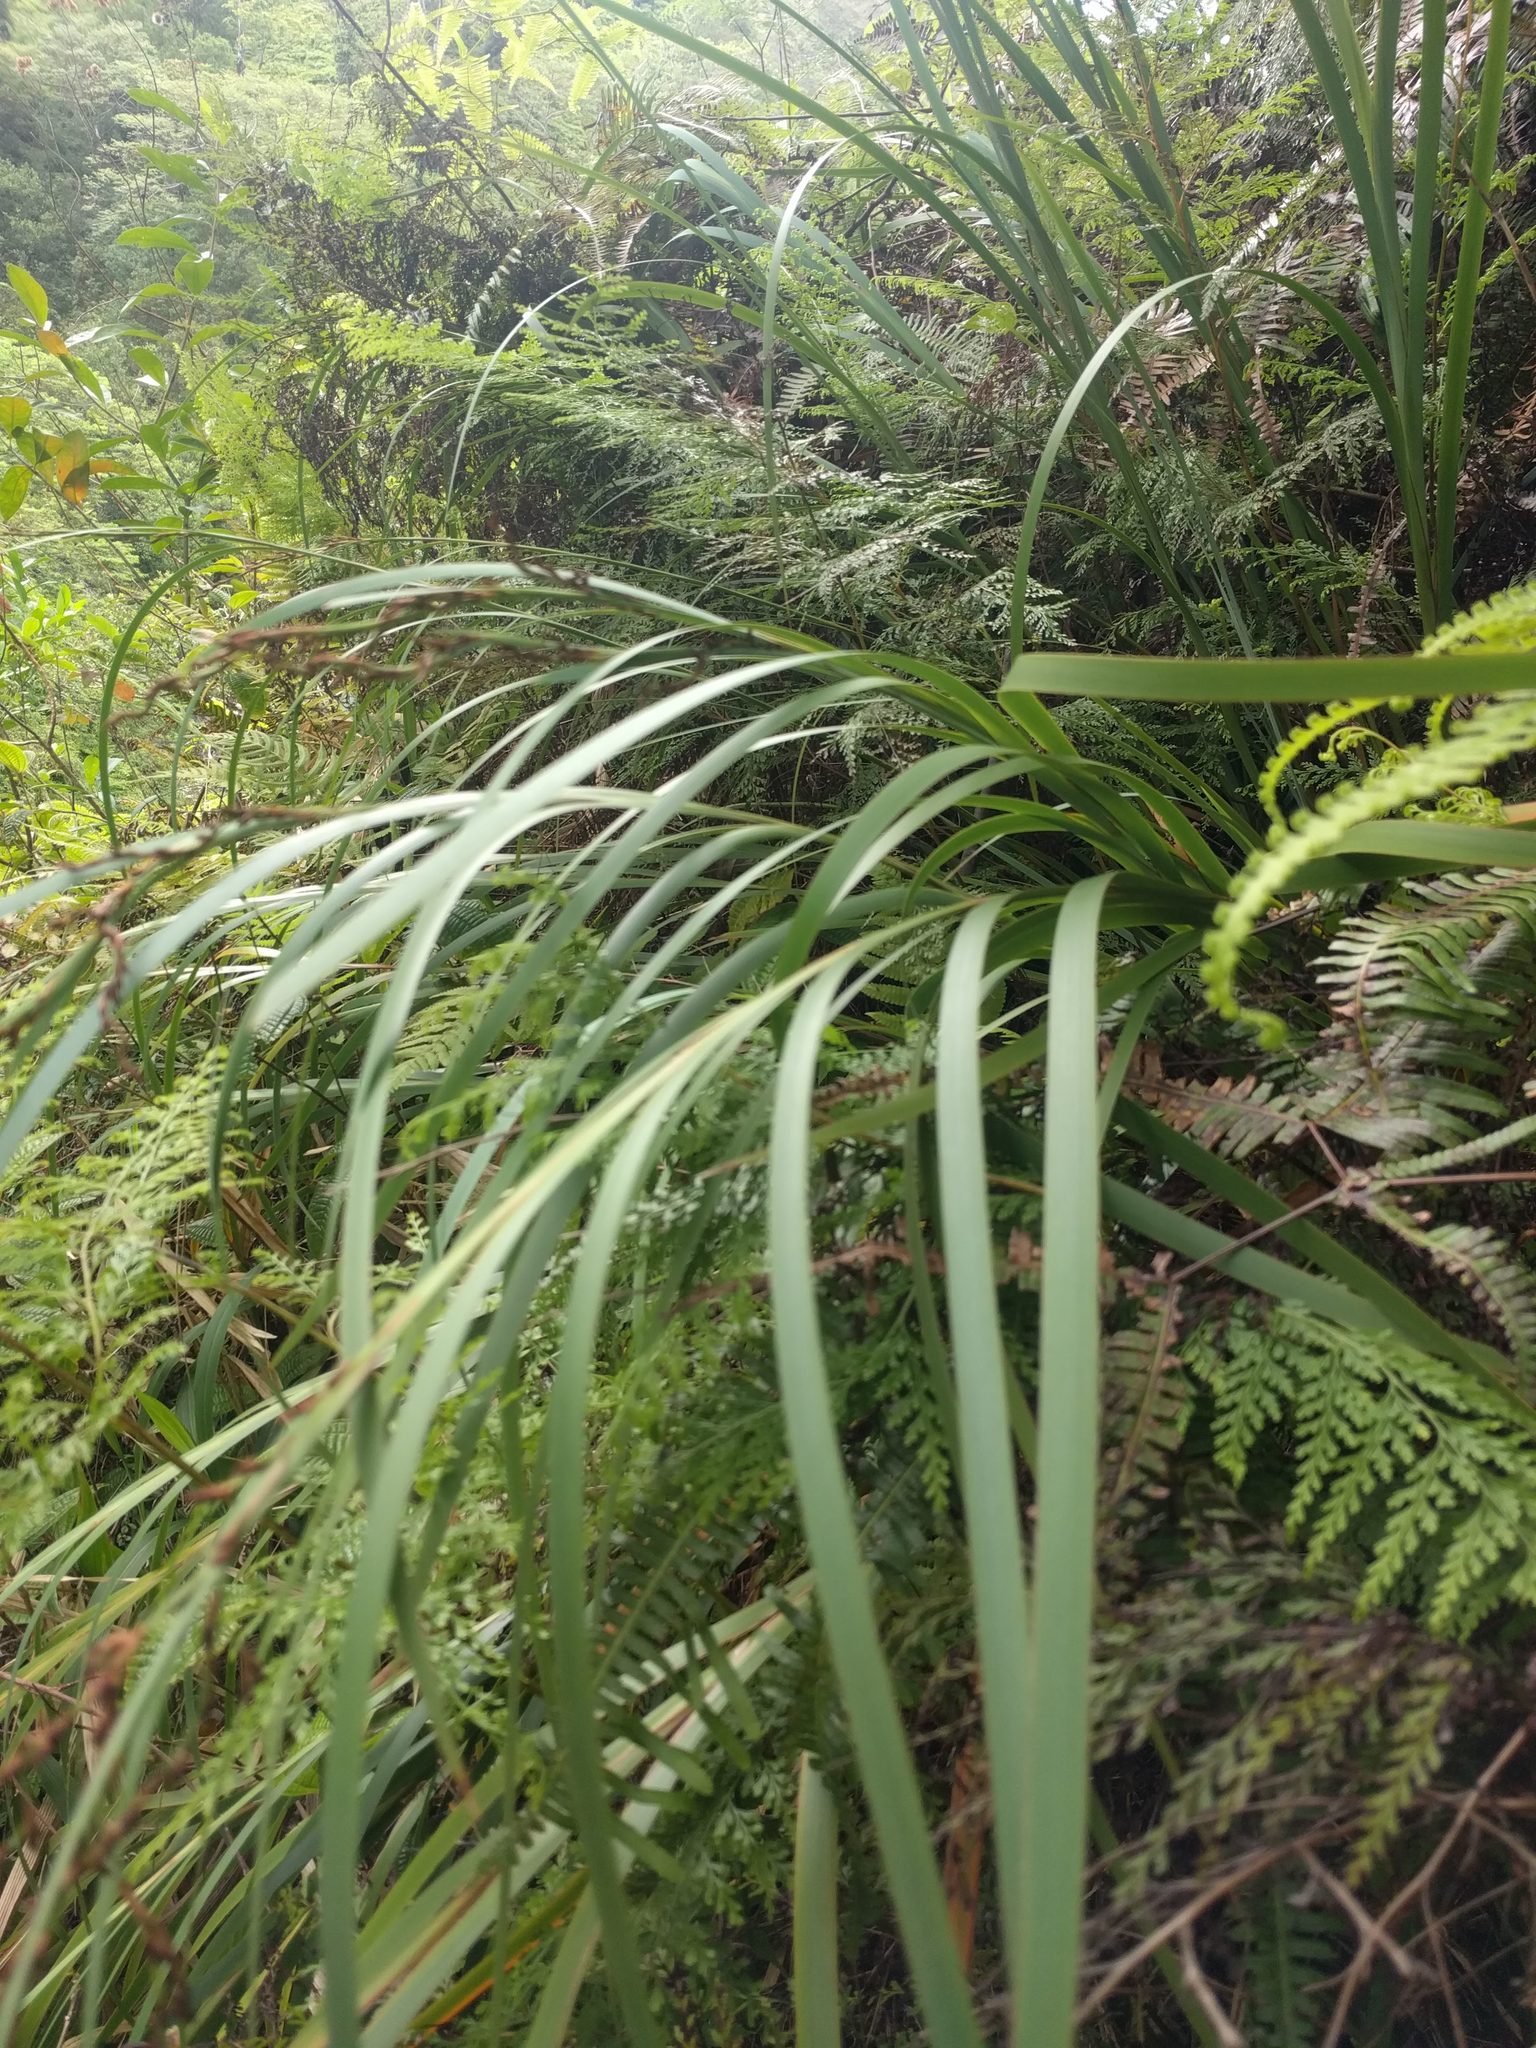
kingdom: Plantae
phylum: Tracheophyta
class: Liliopsida
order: Poales
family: Cyperaceae
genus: Machaerina
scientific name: Machaerina angustifolia
